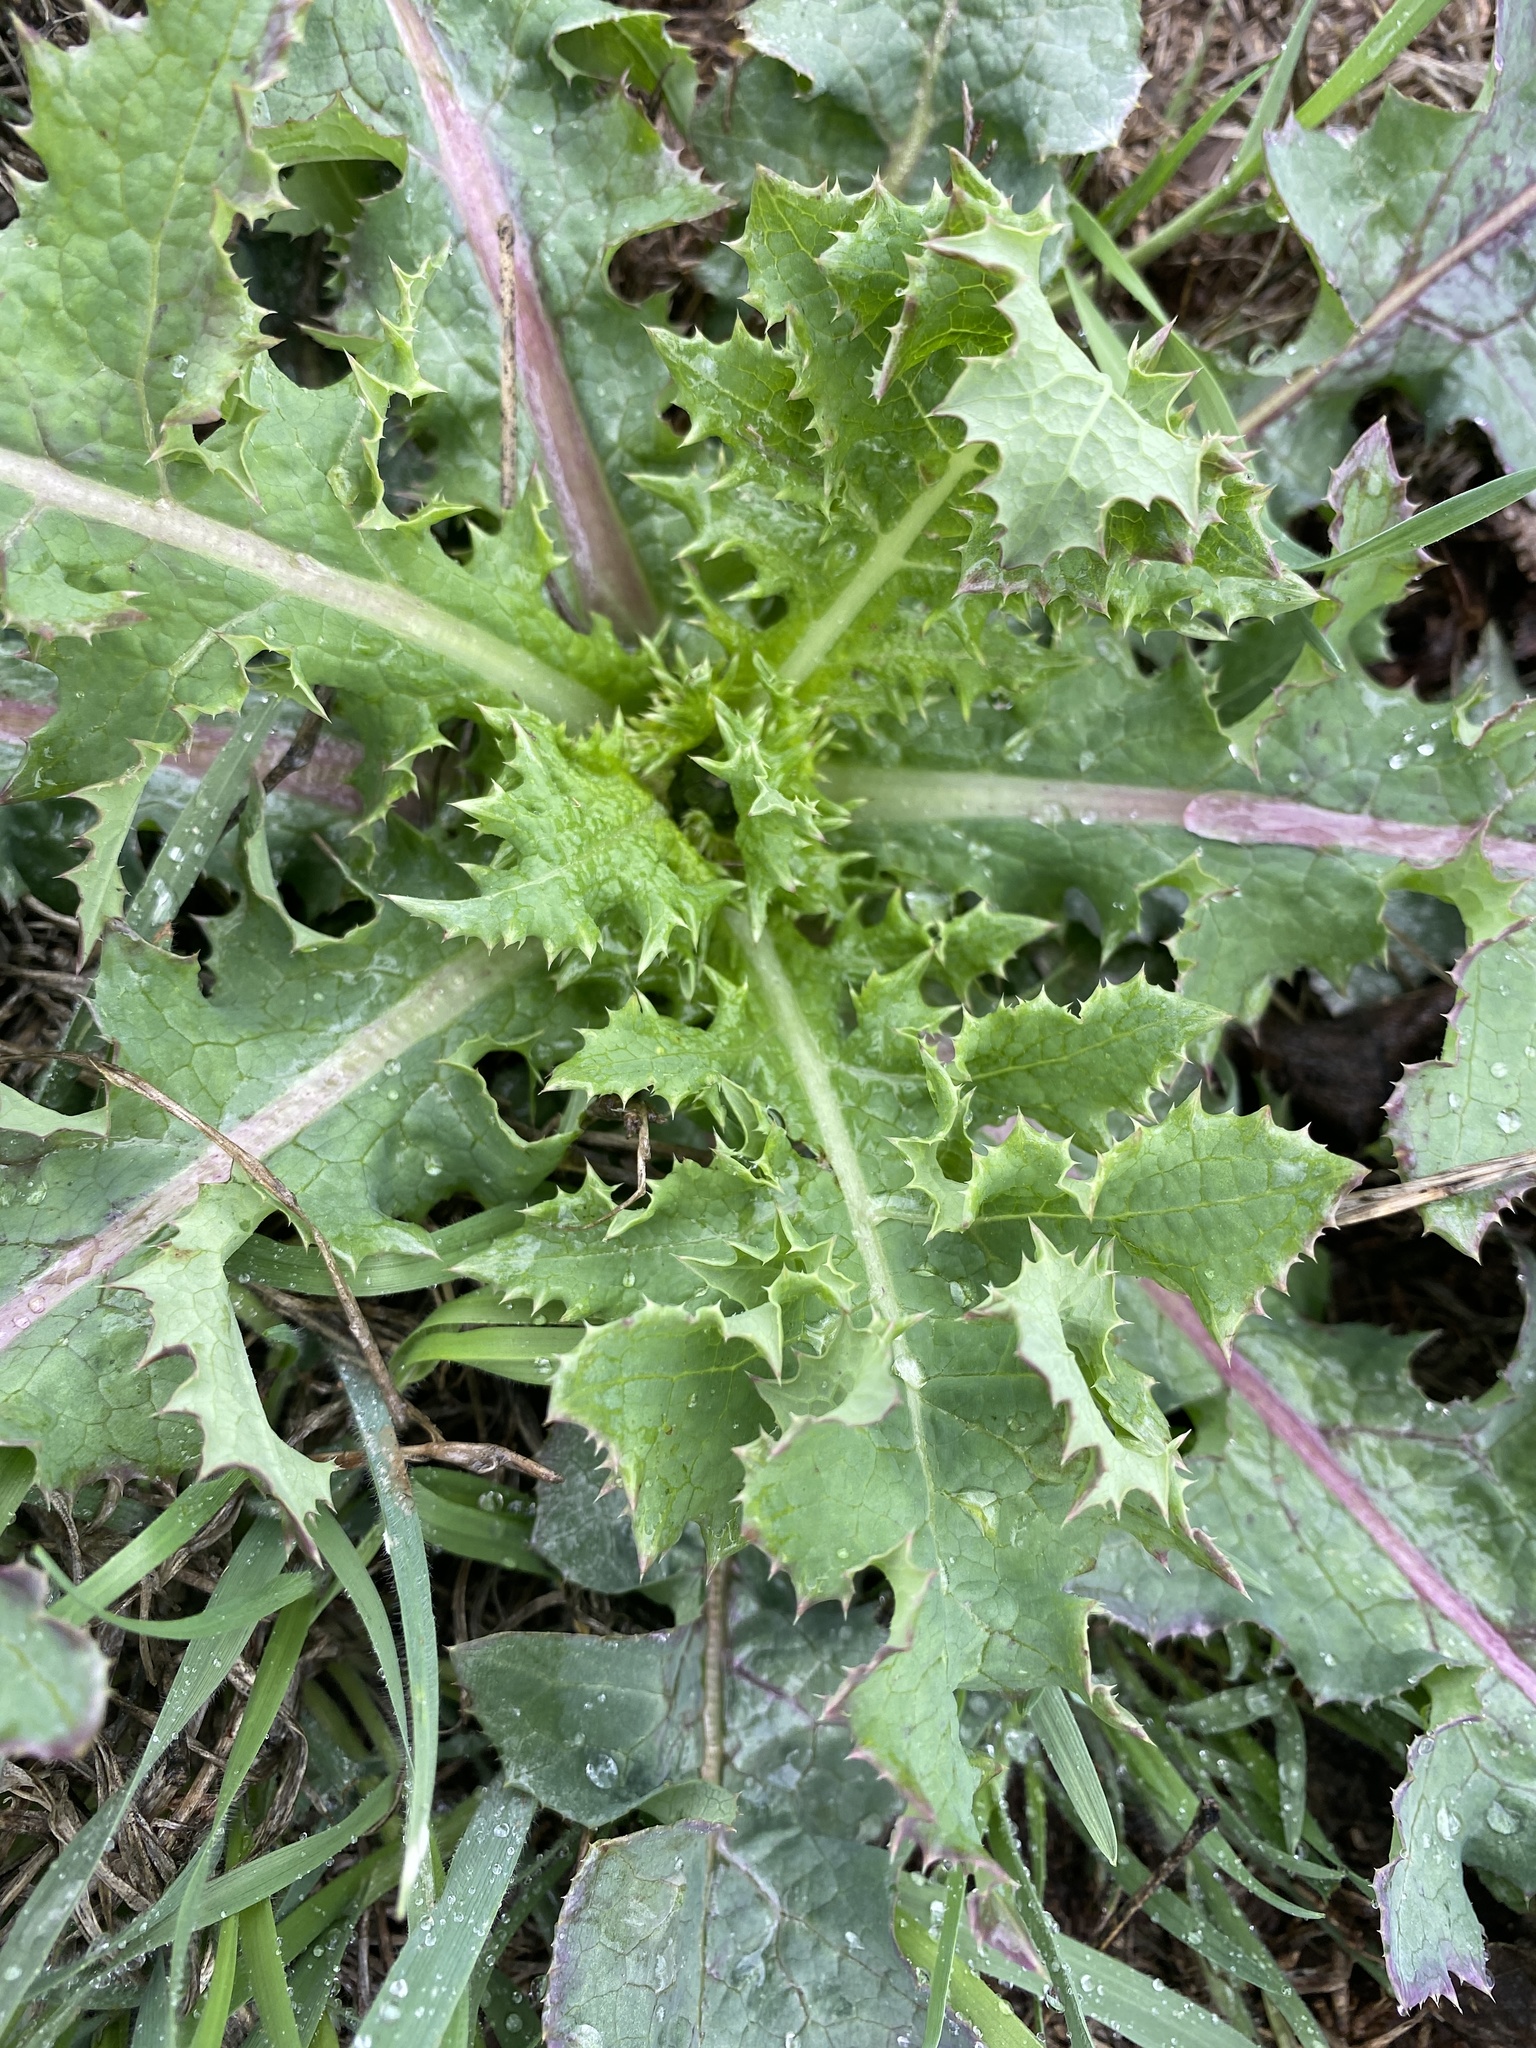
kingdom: Plantae
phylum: Tracheophyta
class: Magnoliopsida
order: Asterales
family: Asteraceae
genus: Sonchus
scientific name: Sonchus asper
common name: Prickly sow-thistle
